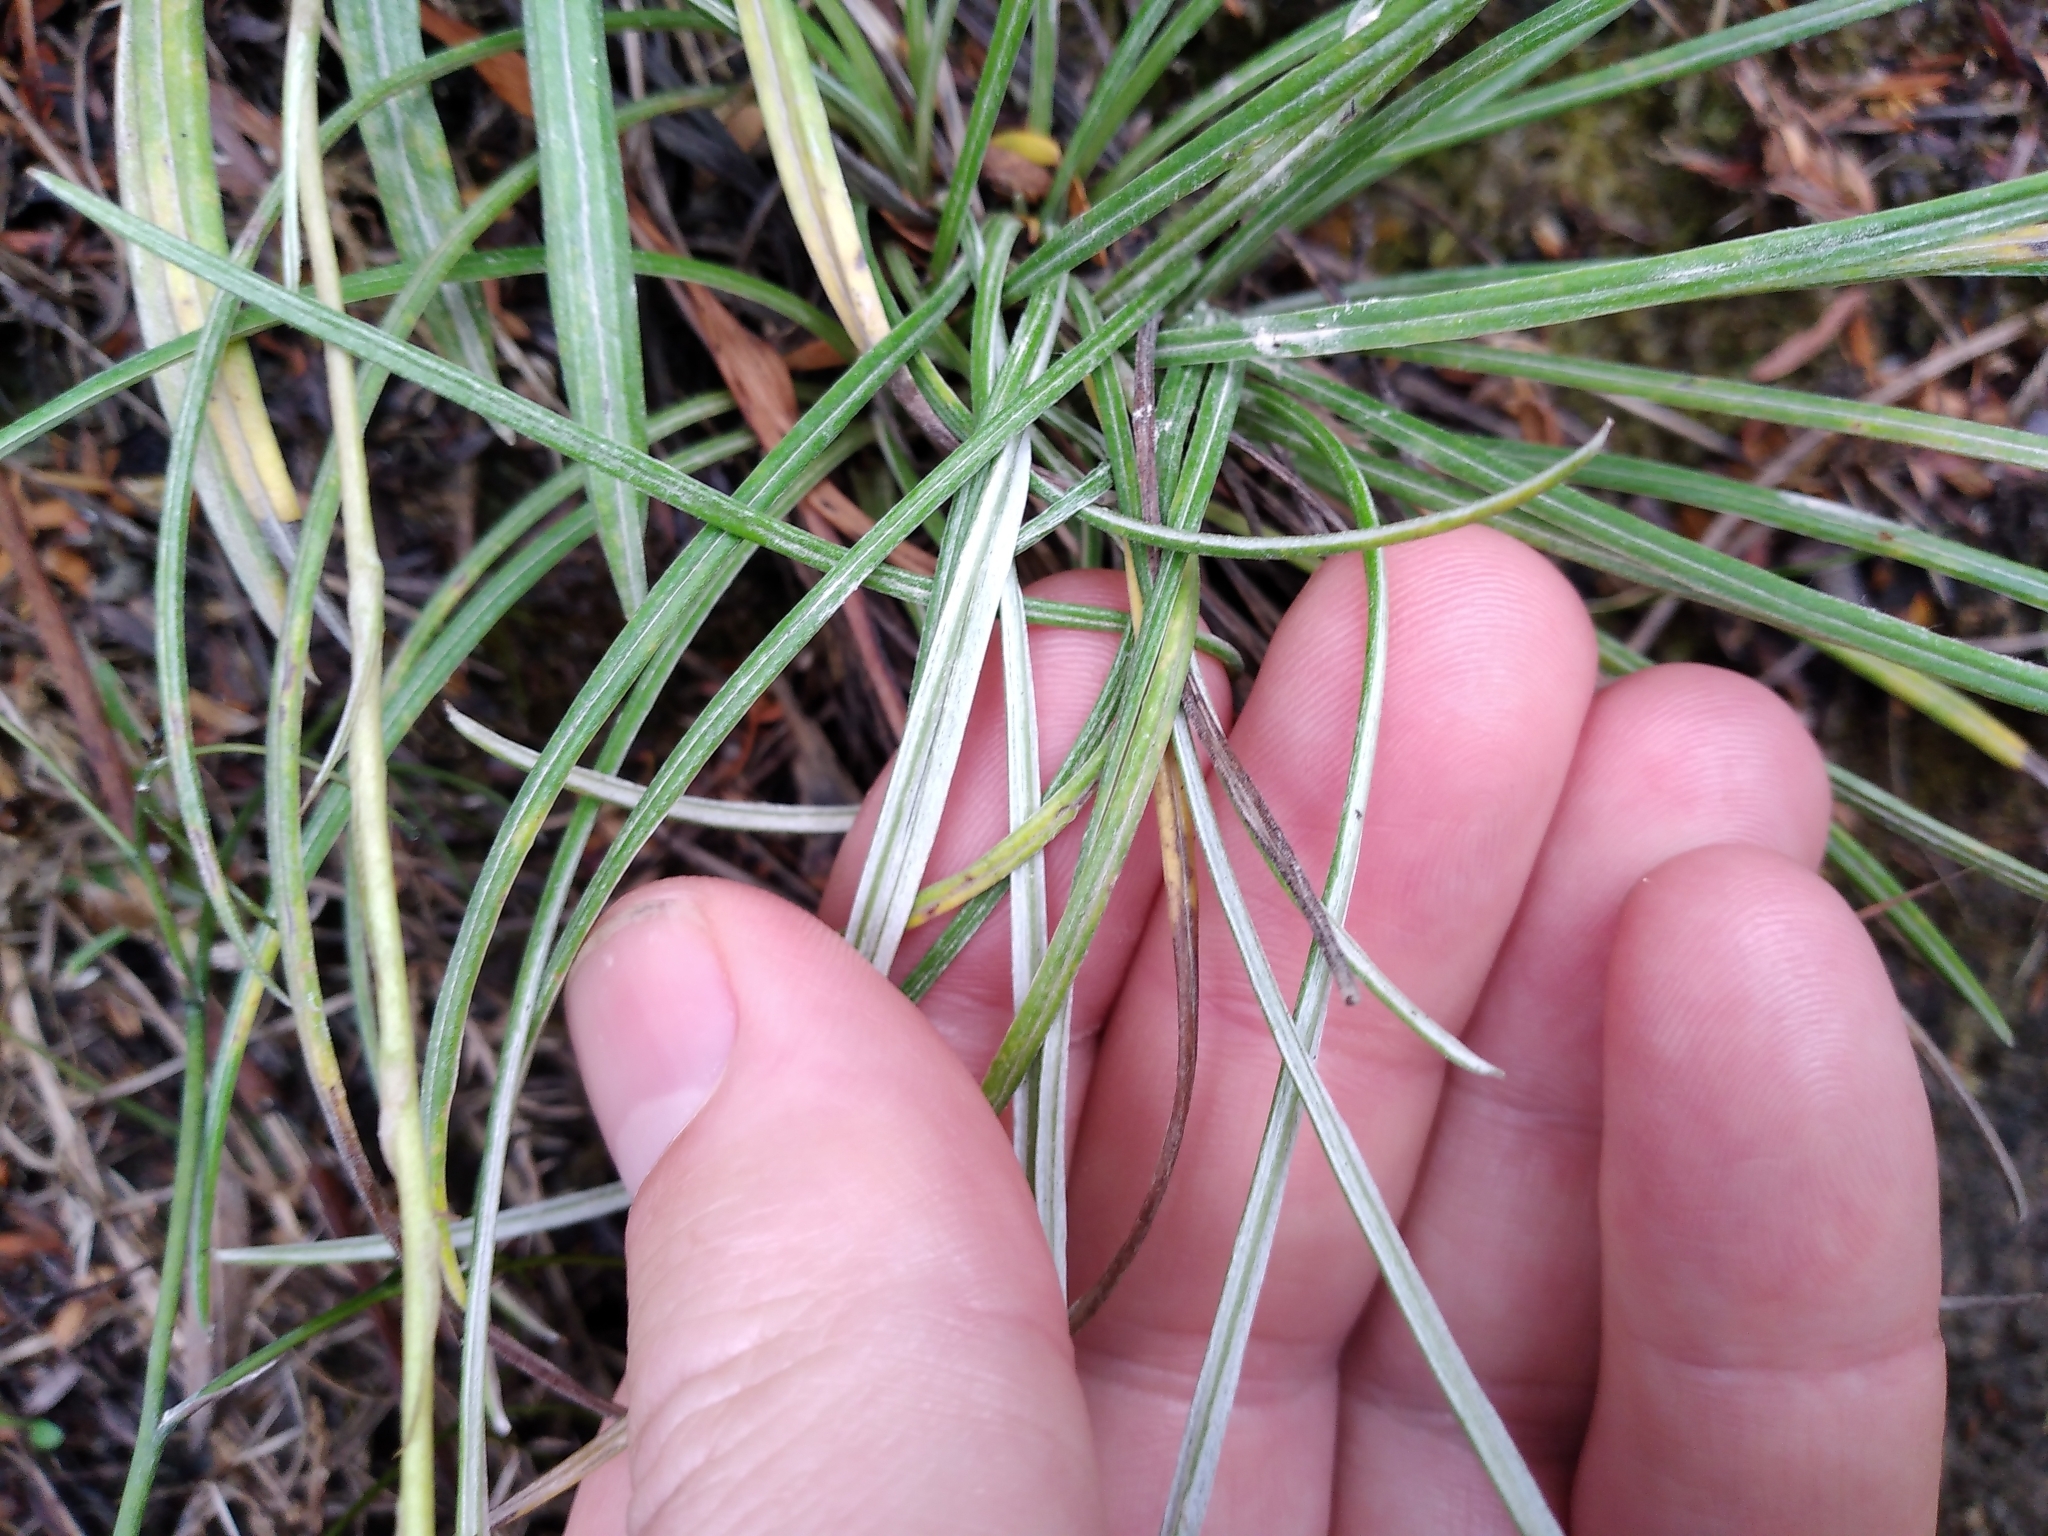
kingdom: Plantae
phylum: Tracheophyta
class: Magnoliopsida
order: Asterales
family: Asteraceae
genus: Celmisia
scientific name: Celmisia gracilenta
